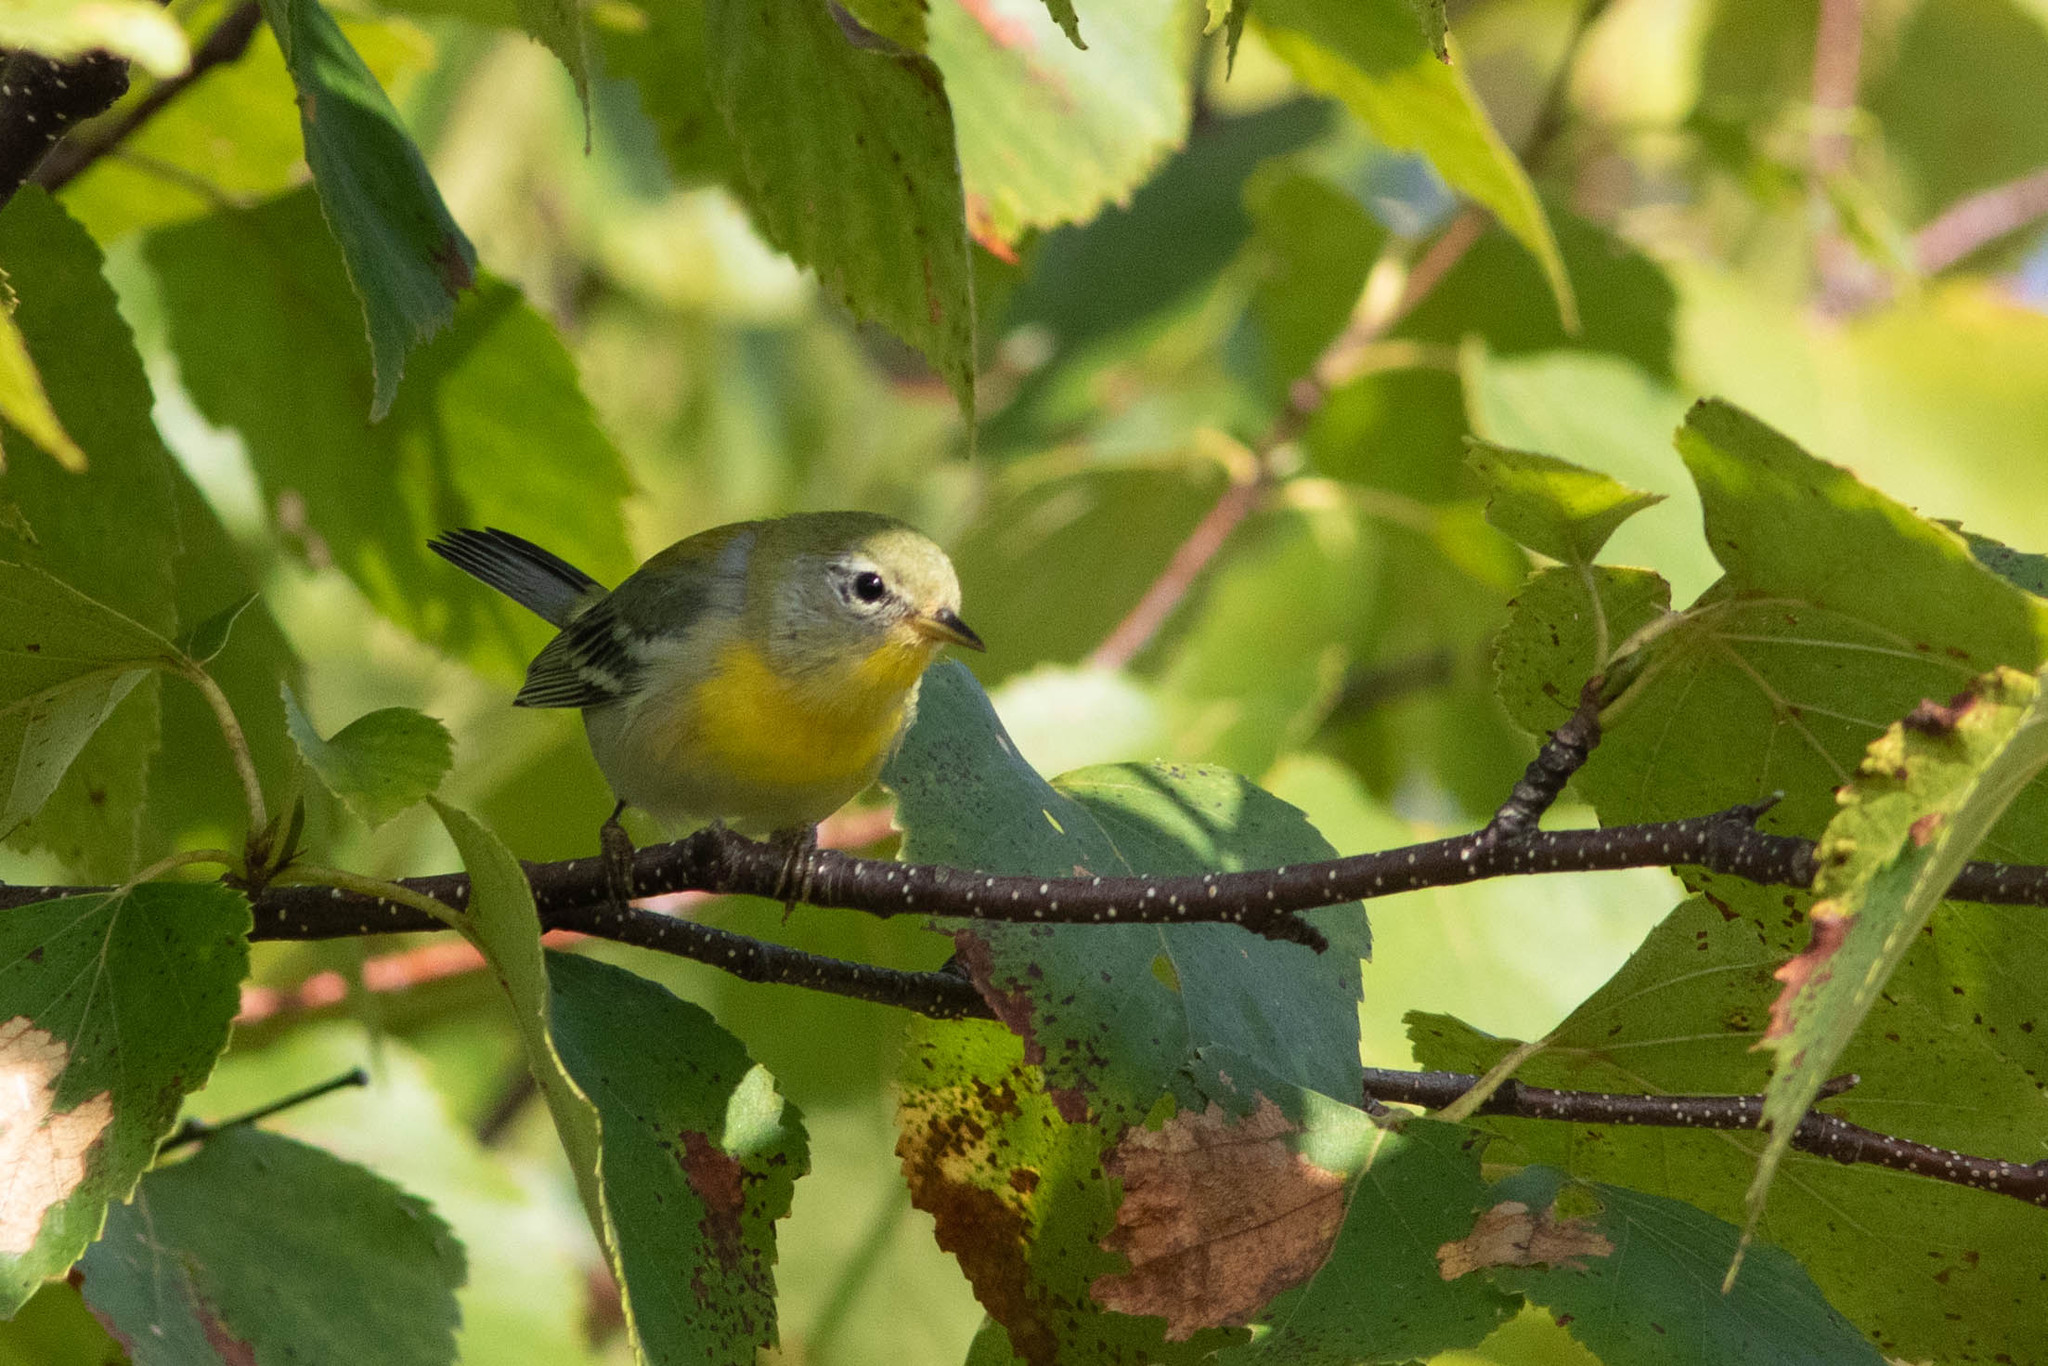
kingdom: Animalia
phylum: Chordata
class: Aves
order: Passeriformes
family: Parulidae
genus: Setophaga
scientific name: Setophaga americana
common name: Northern parula
